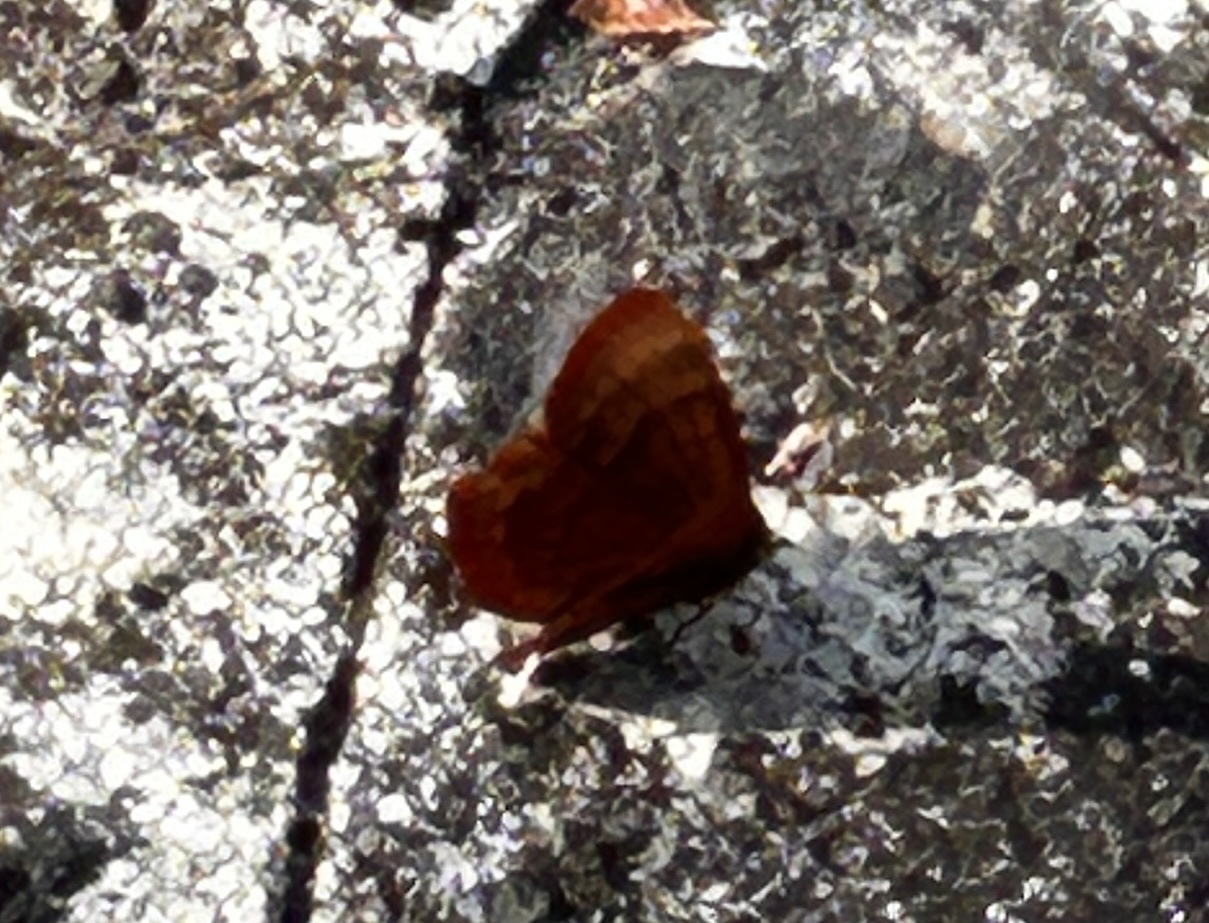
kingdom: Animalia
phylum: Arthropoda
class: Insecta
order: Lepidoptera
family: Lycaenidae
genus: Abisara
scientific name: Abisara echeria
